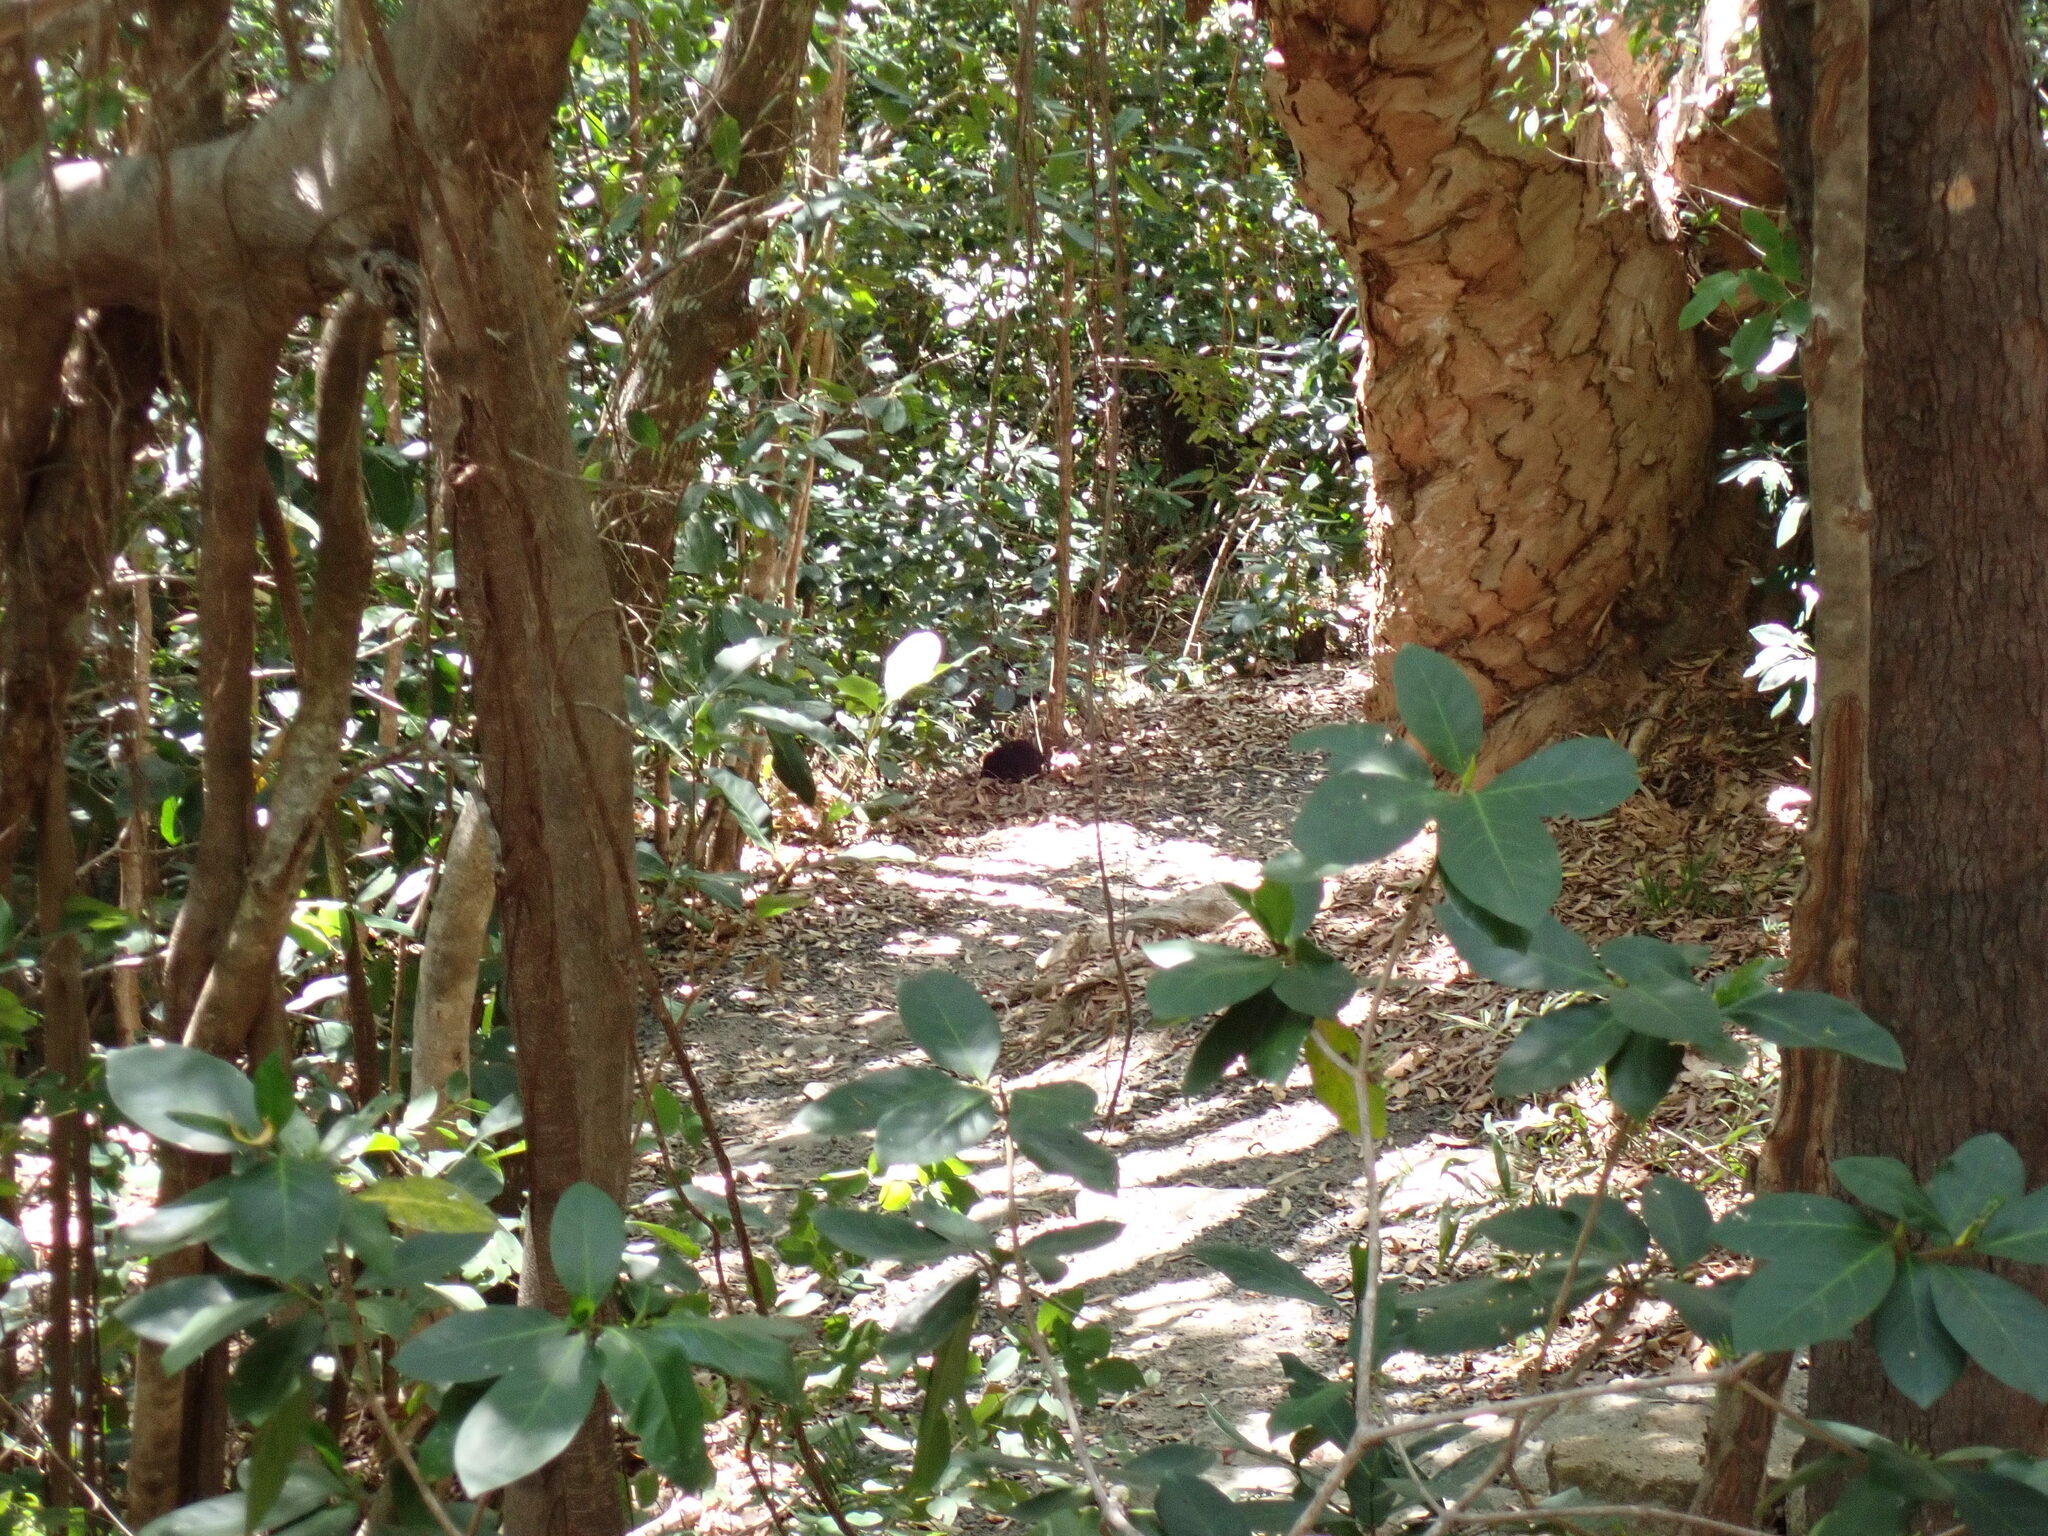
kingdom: Animalia
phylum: Chordata
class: Mammalia
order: Monotremata
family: Tachyglossidae
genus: Tachyglossus
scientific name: Tachyglossus aculeatus
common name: Short-beaked echidna
